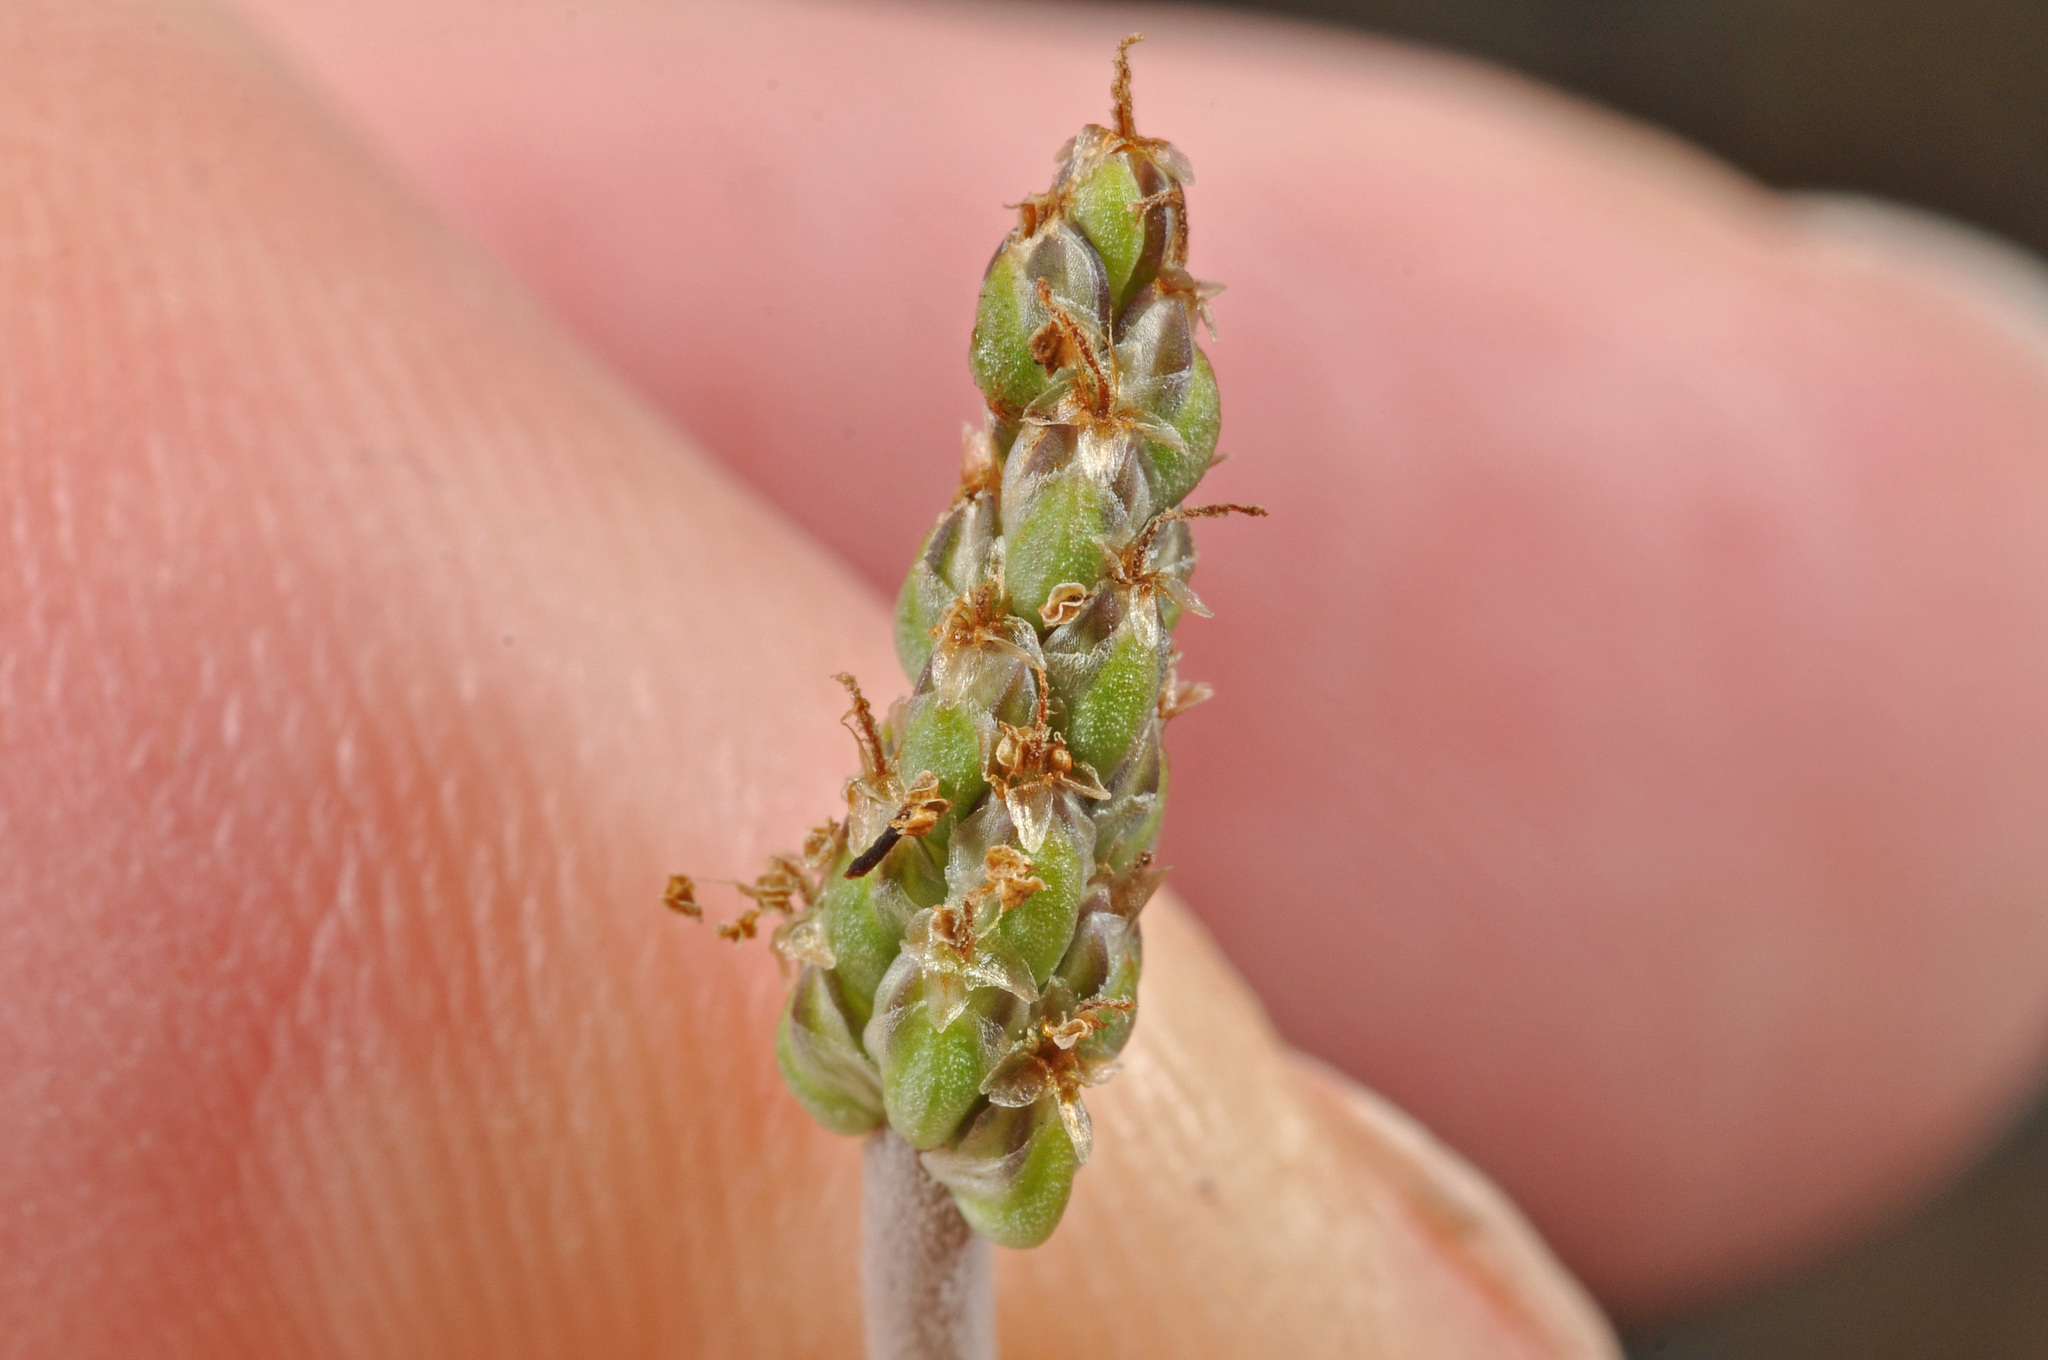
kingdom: Plantae
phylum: Tracheophyta
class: Magnoliopsida
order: Lamiales
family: Plantaginaceae
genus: Plantago
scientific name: Plantago raoulii
